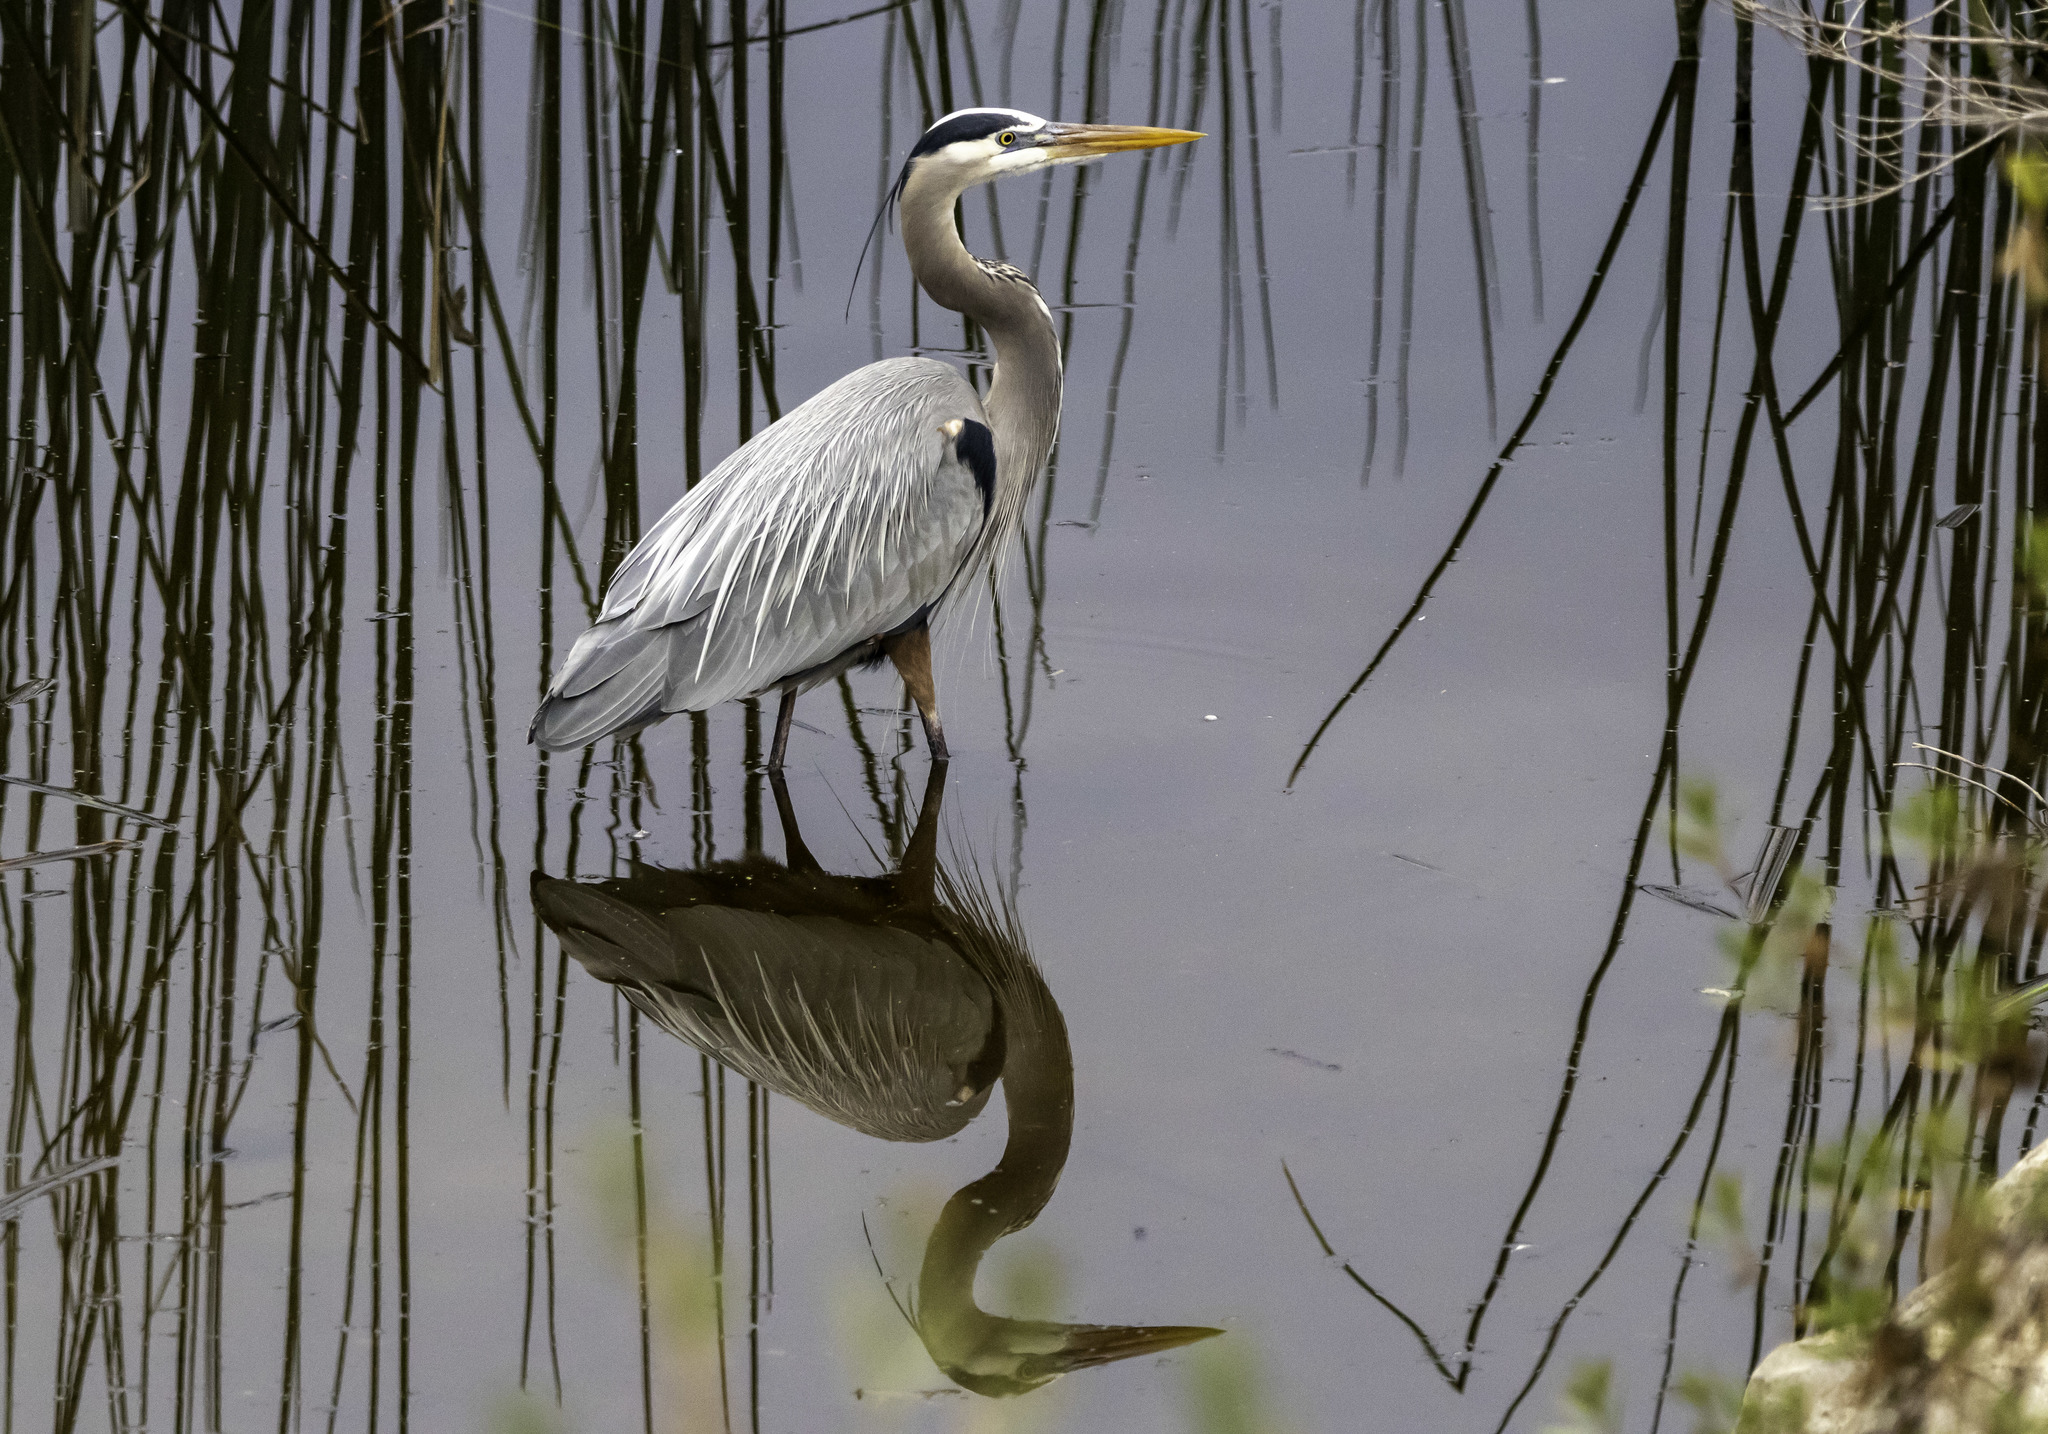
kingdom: Animalia
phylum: Chordata
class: Aves
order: Pelecaniformes
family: Ardeidae
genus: Ardea
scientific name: Ardea herodias
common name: Great blue heron
